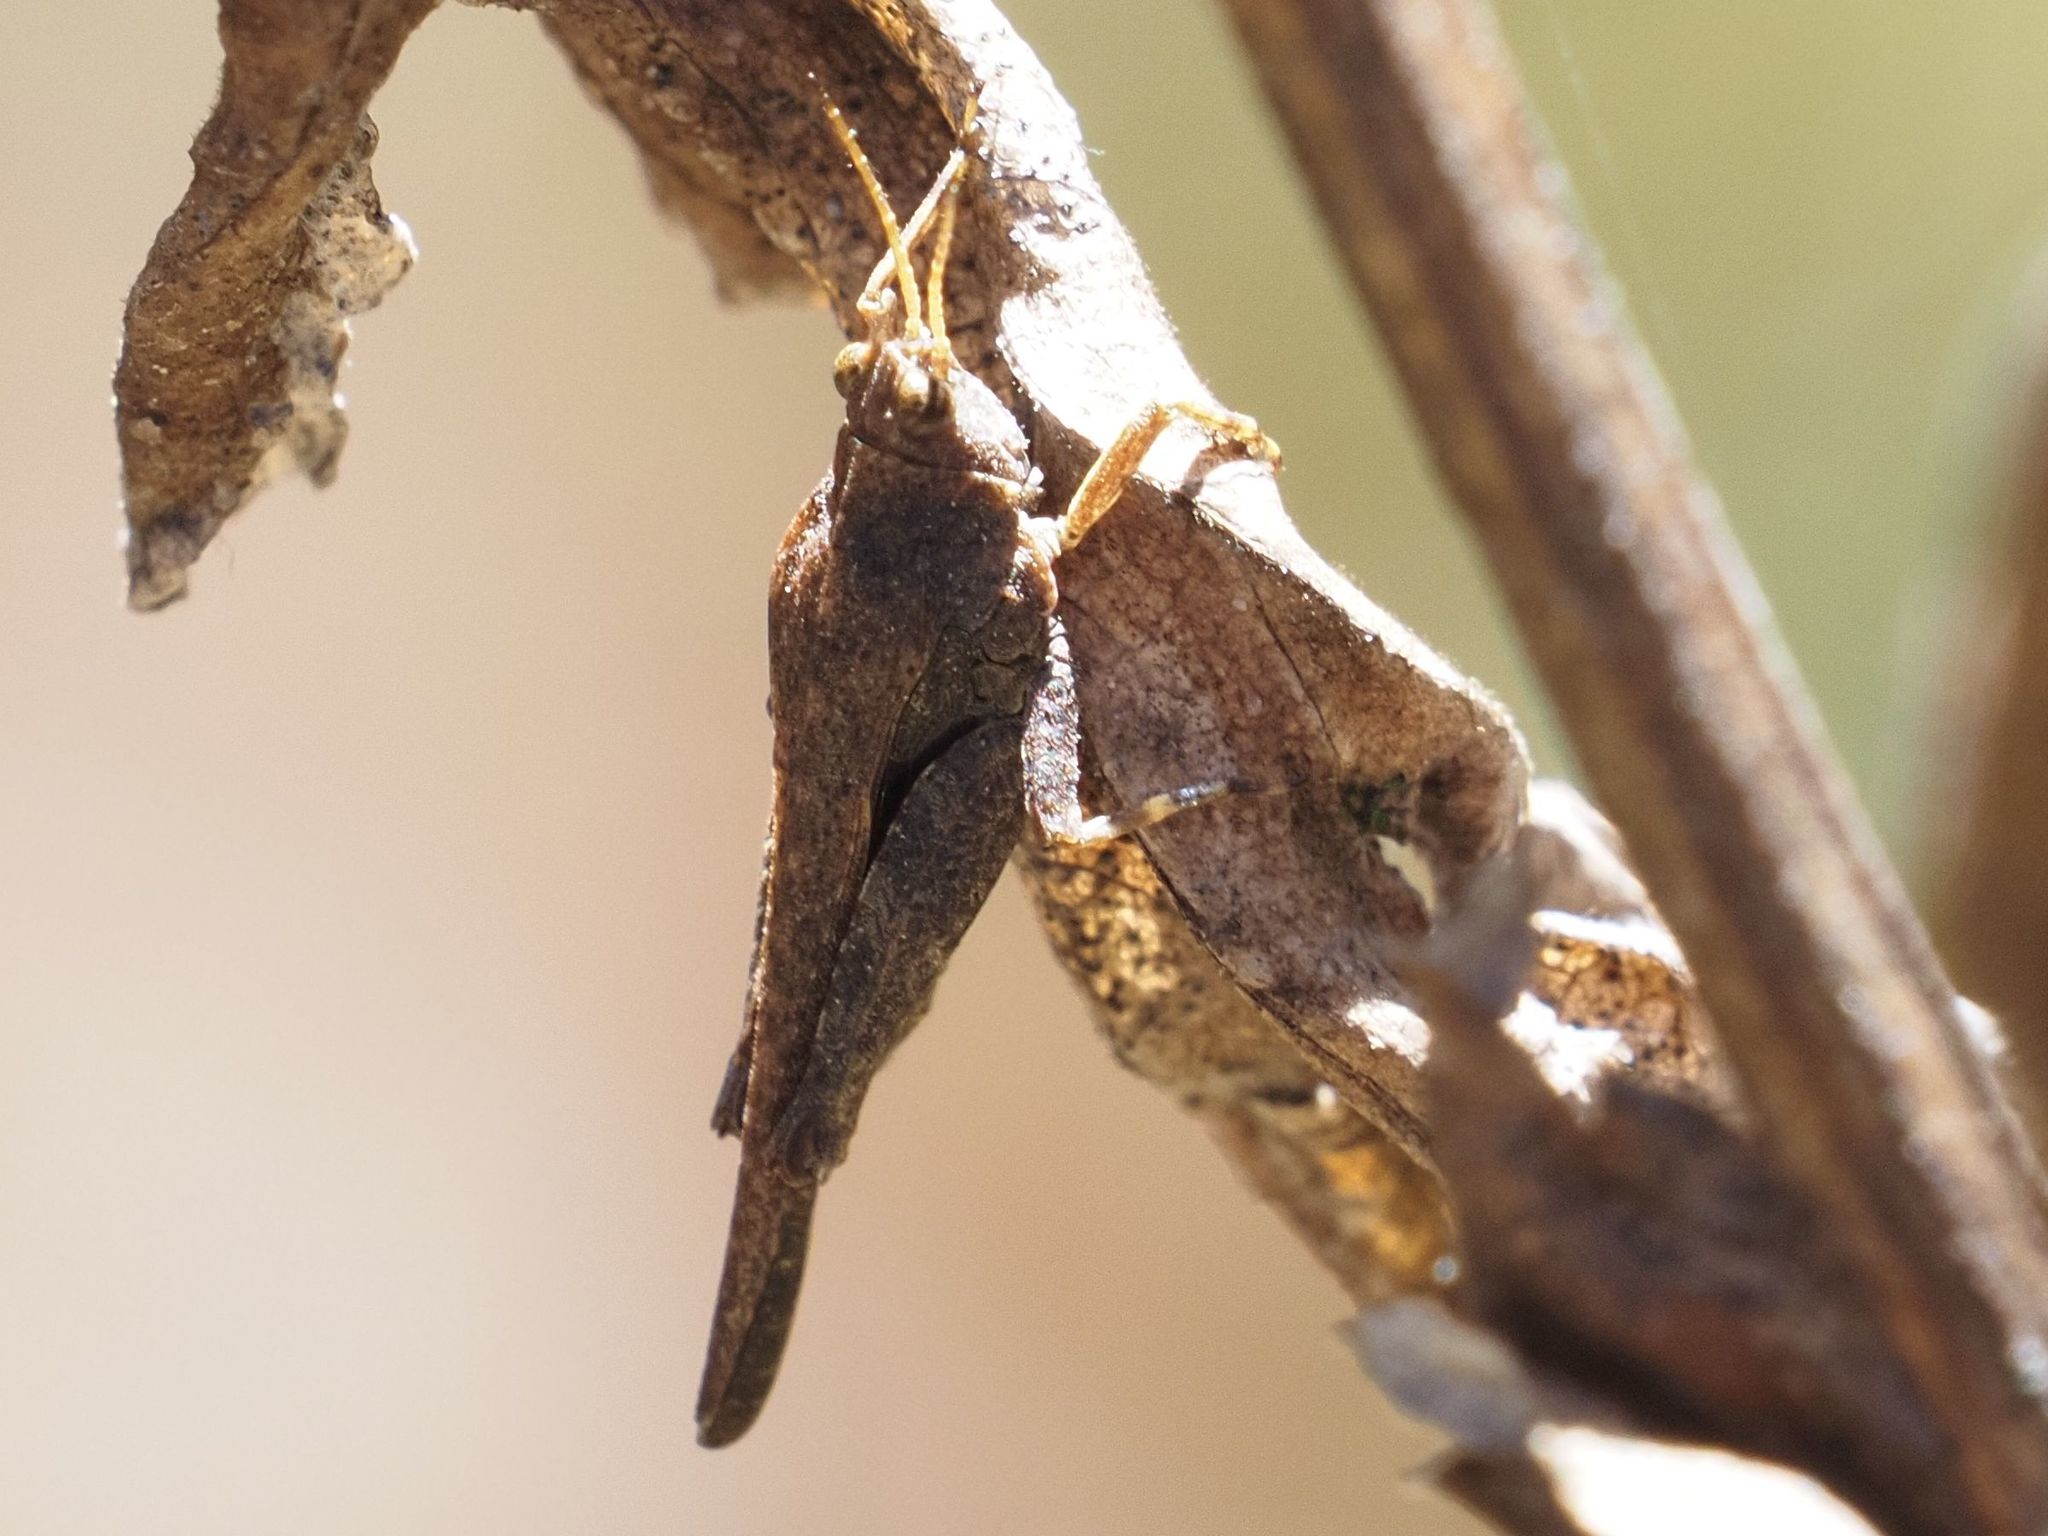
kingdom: Animalia
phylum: Arthropoda
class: Insecta
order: Orthoptera
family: Tetrigidae
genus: Tetrix
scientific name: Tetrix subulata
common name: Slender ground-hopper
